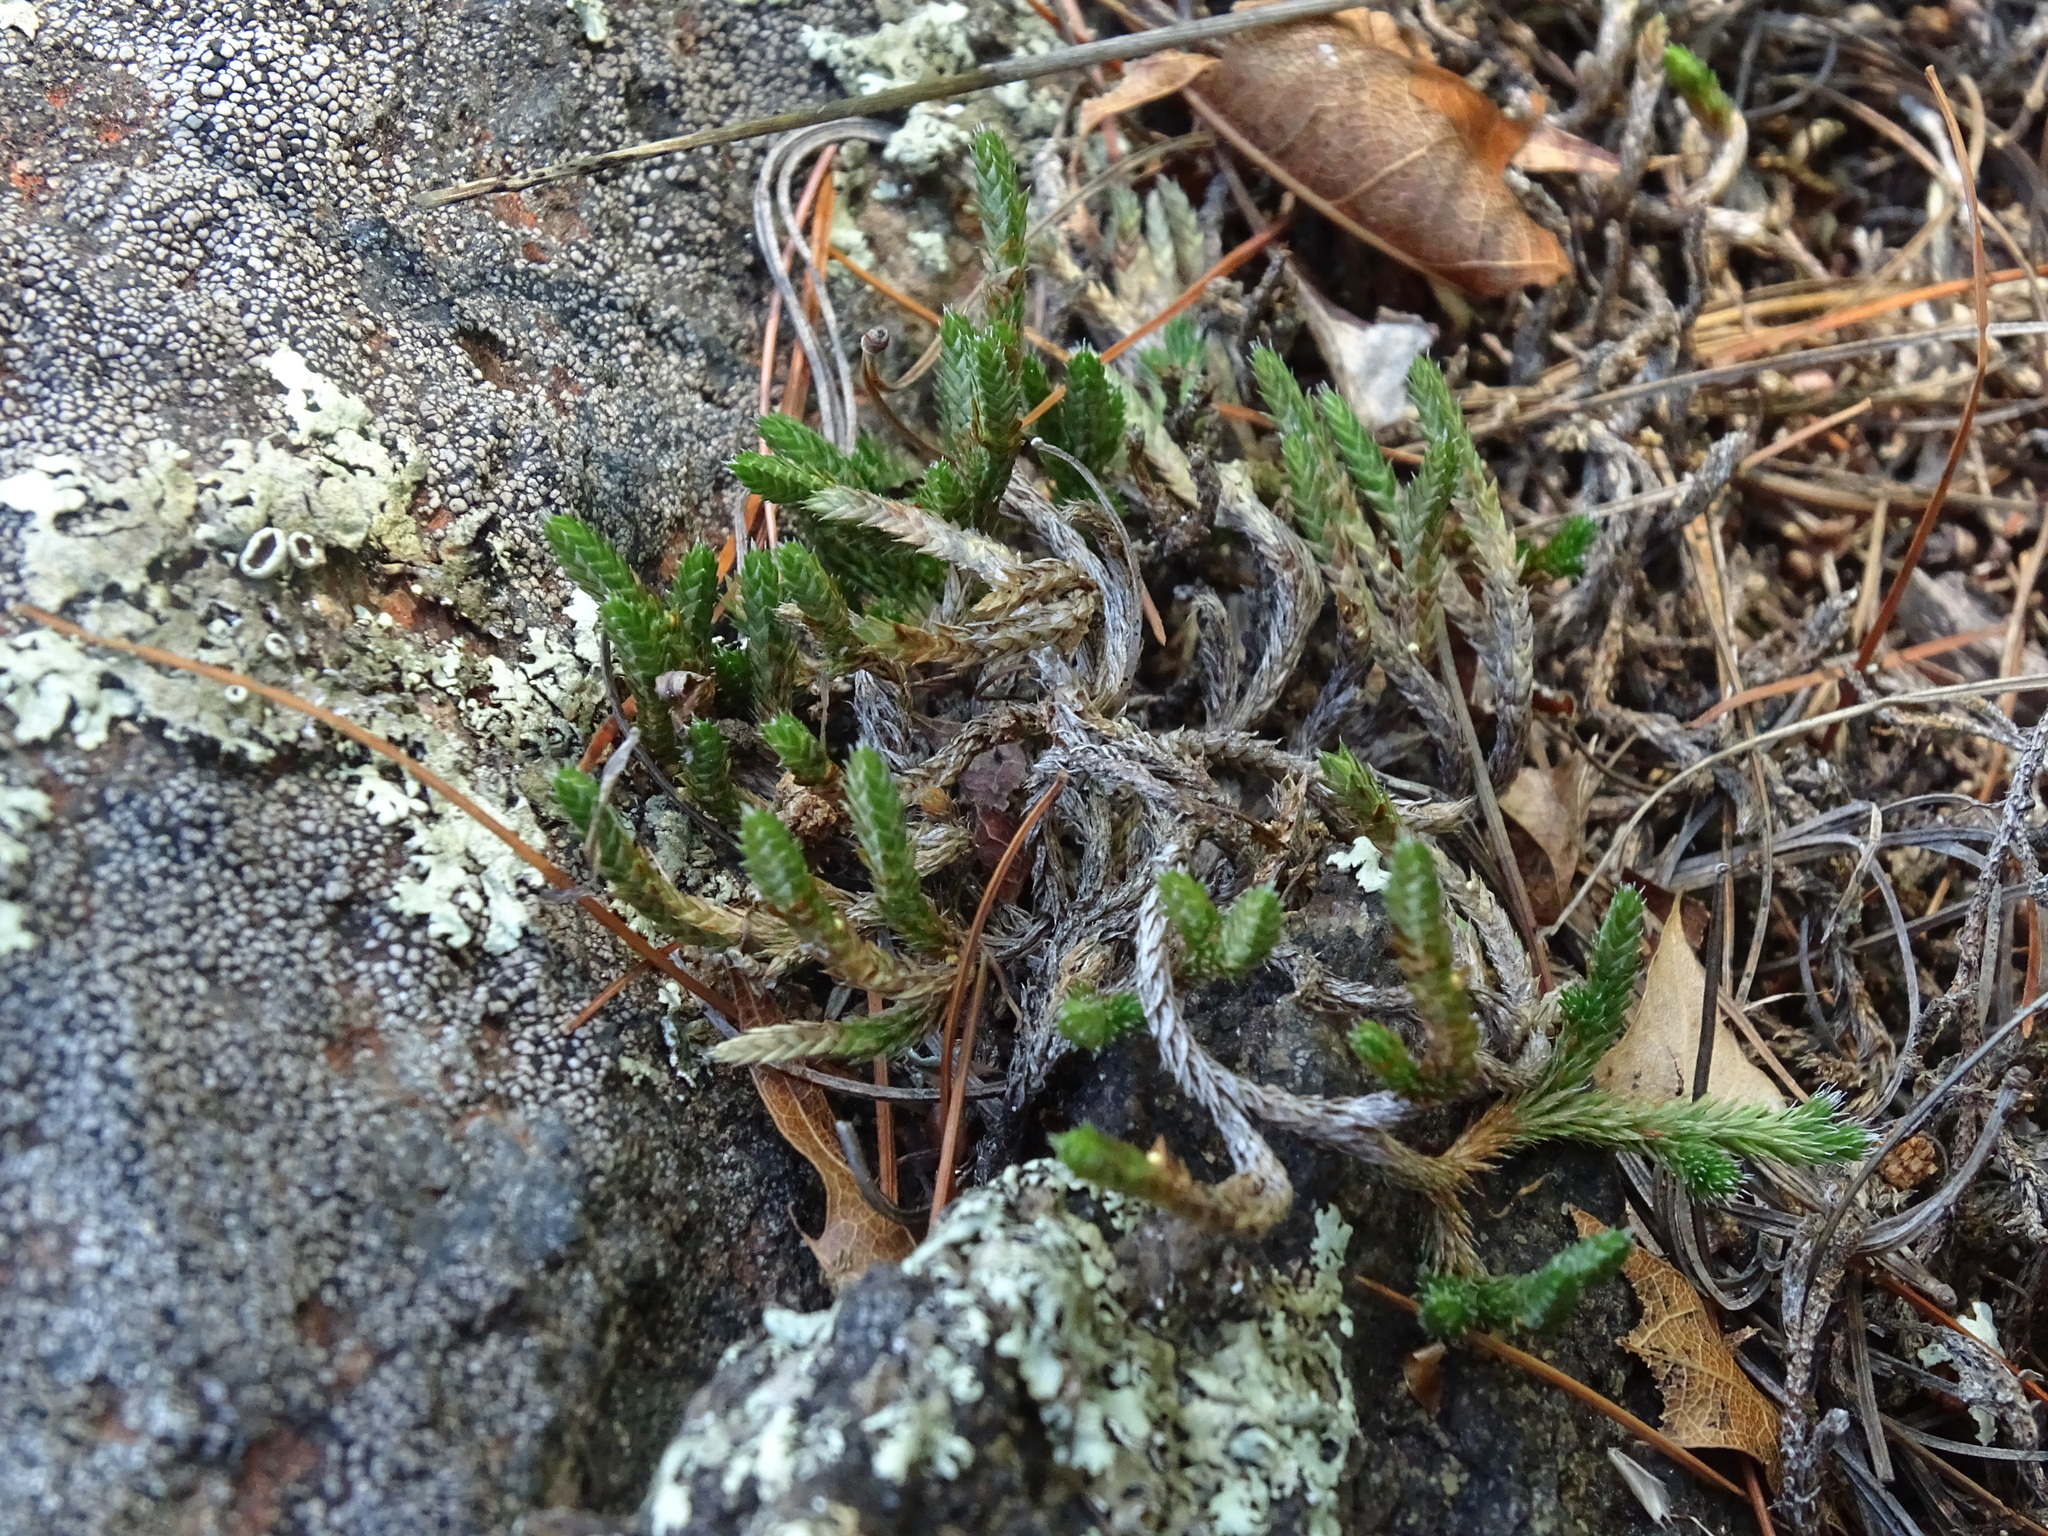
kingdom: Plantae
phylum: Tracheophyta
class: Lycopodiopsida
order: Selaginellales
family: Selaginellaceae
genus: Selaginella
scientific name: Selaginella rupestris
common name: Dwarf spikemoss
